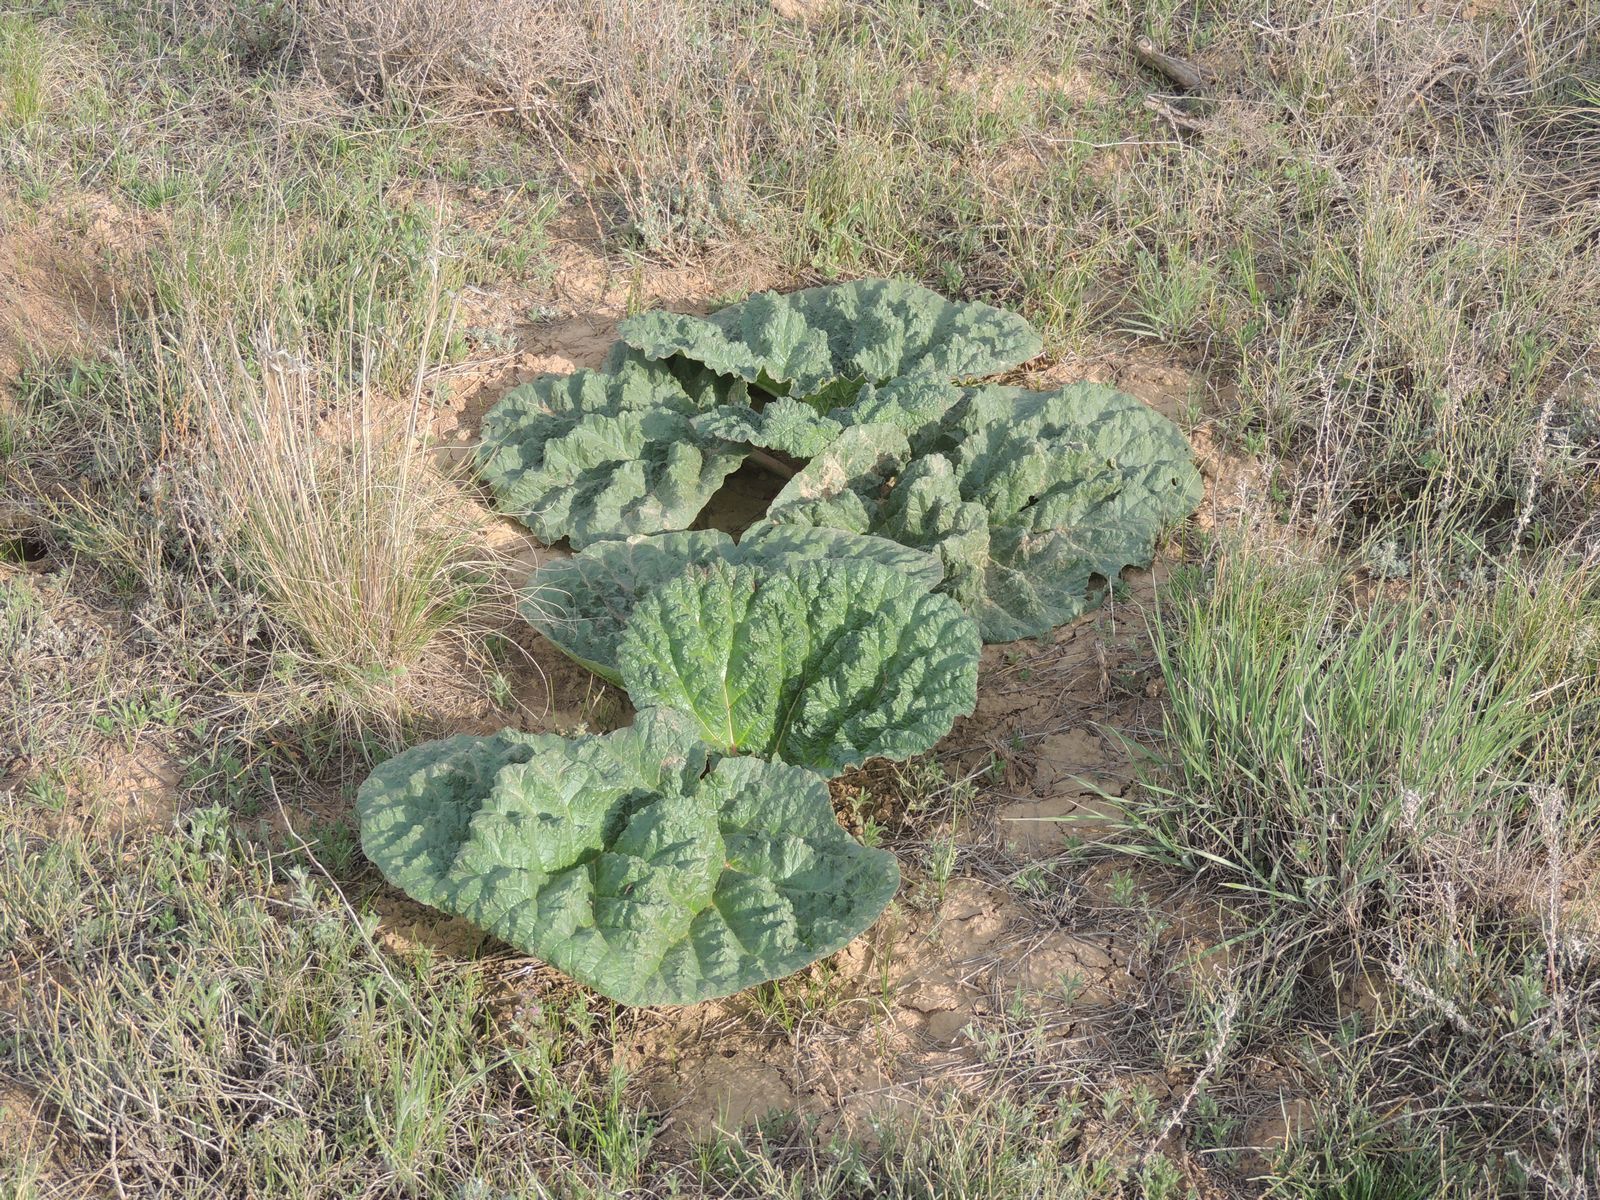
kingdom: Plantae
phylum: Tracheophyta
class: Magnoliopsida
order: Caryophyllales
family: Polygonaceae
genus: Rheum
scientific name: Rheum tataricum
